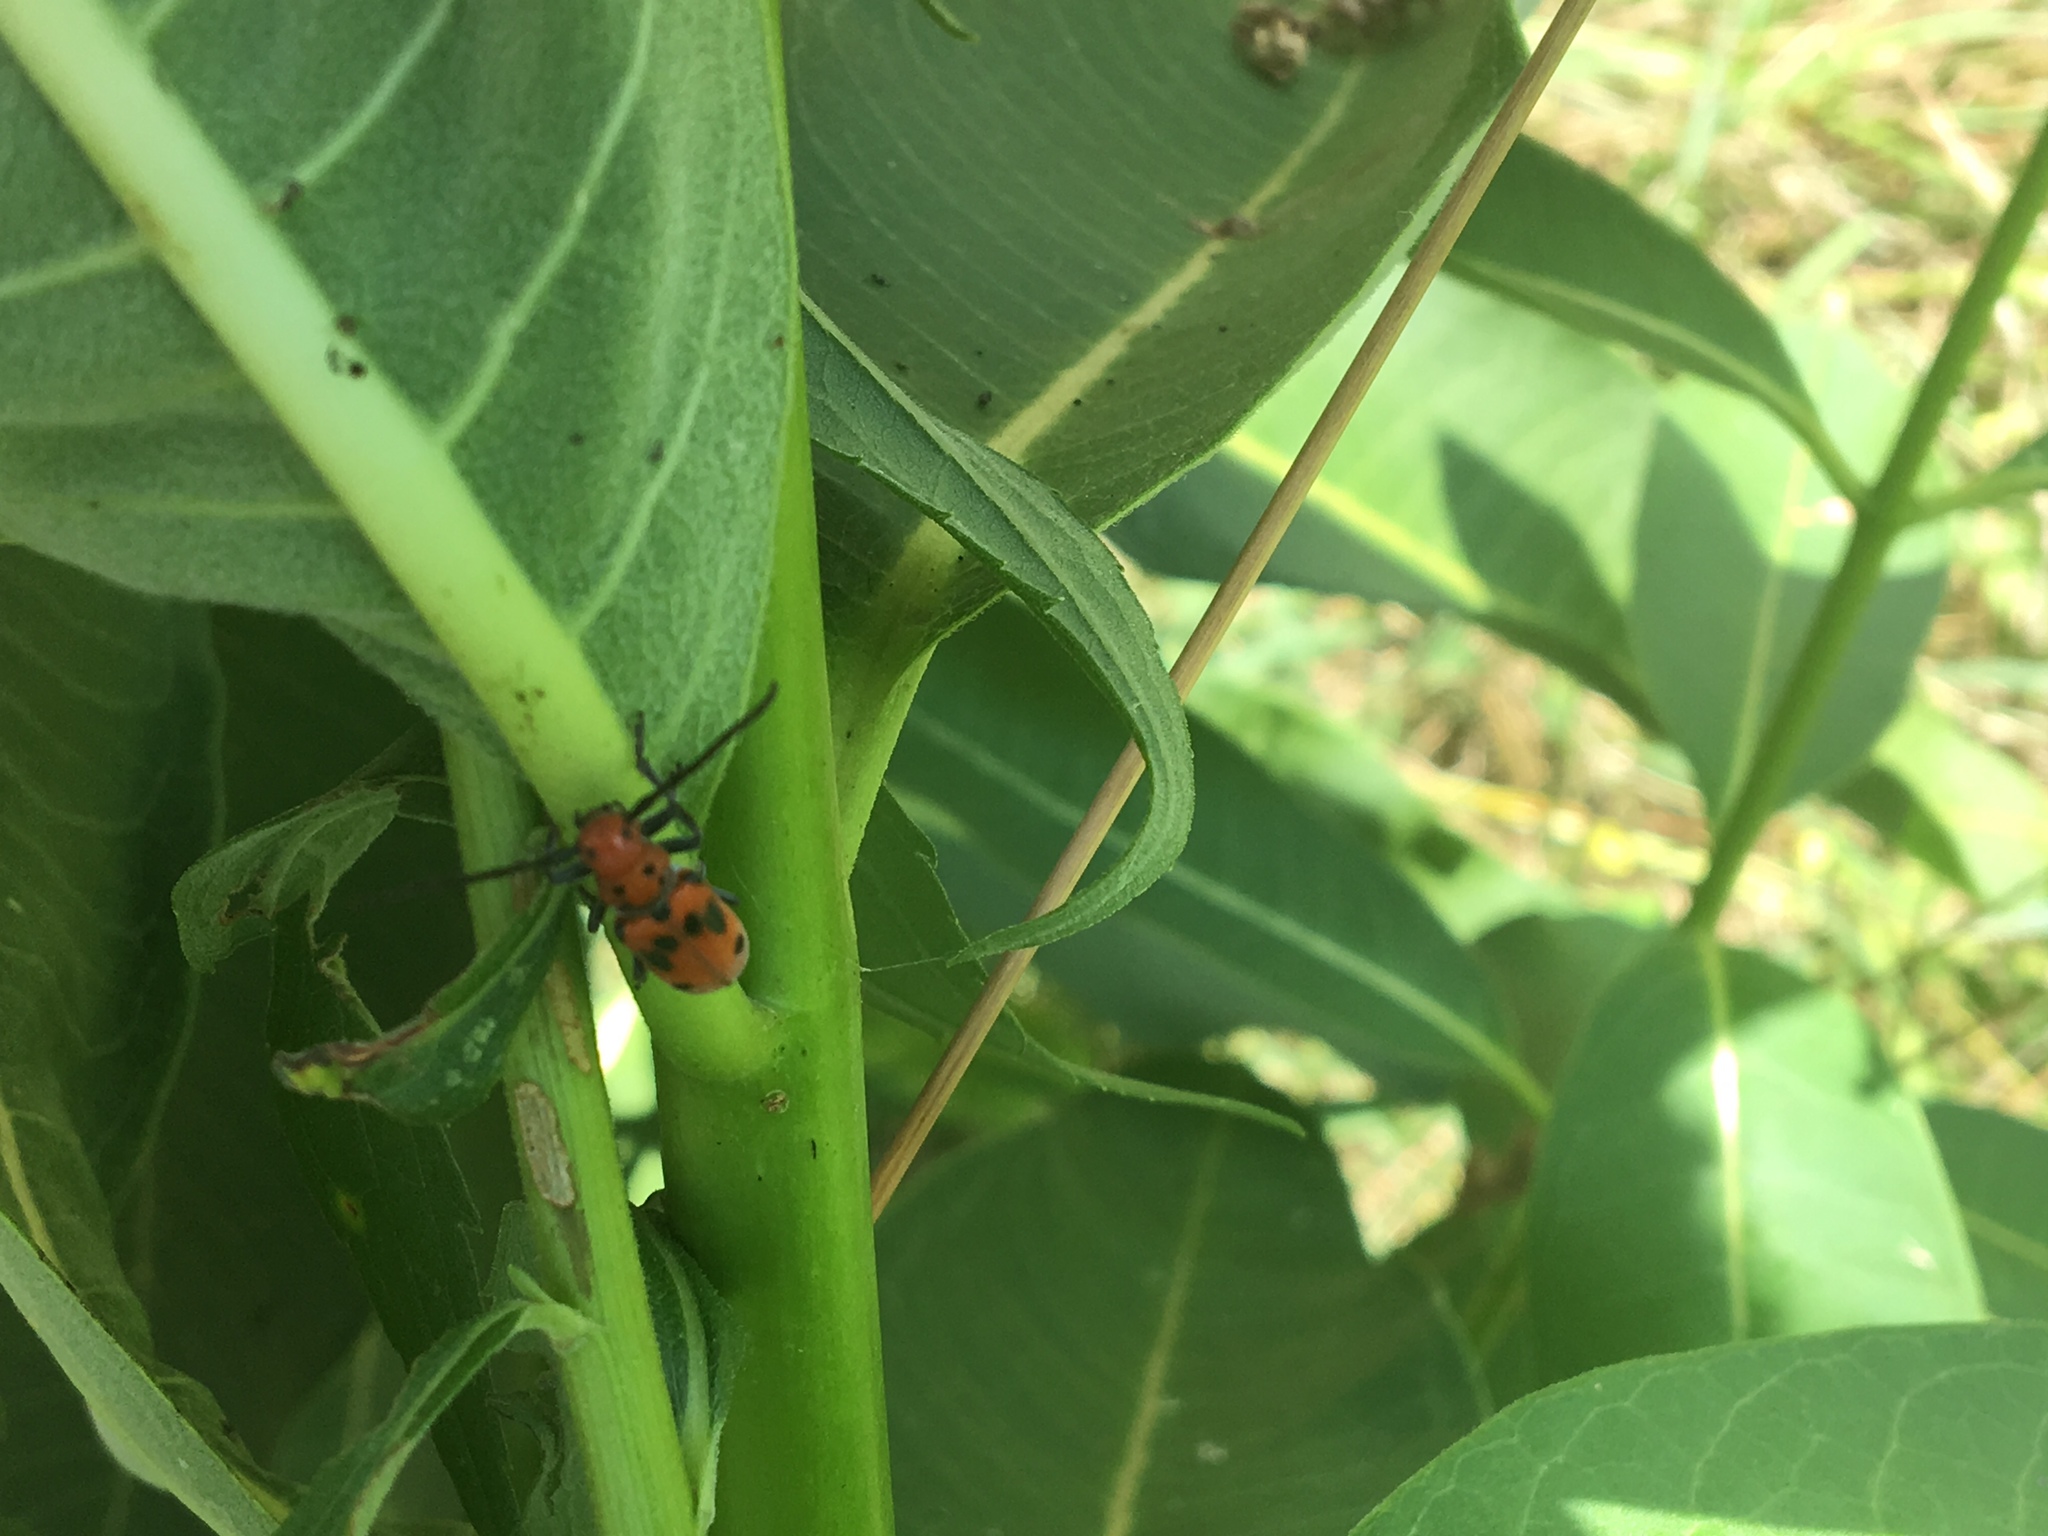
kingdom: Animalia
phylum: Arthropoda
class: Insecta
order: Coleoptera
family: Cerambycidae
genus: Tetraopes
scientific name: Tetraopes tetrophthalmus
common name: Red milkweed beetle
